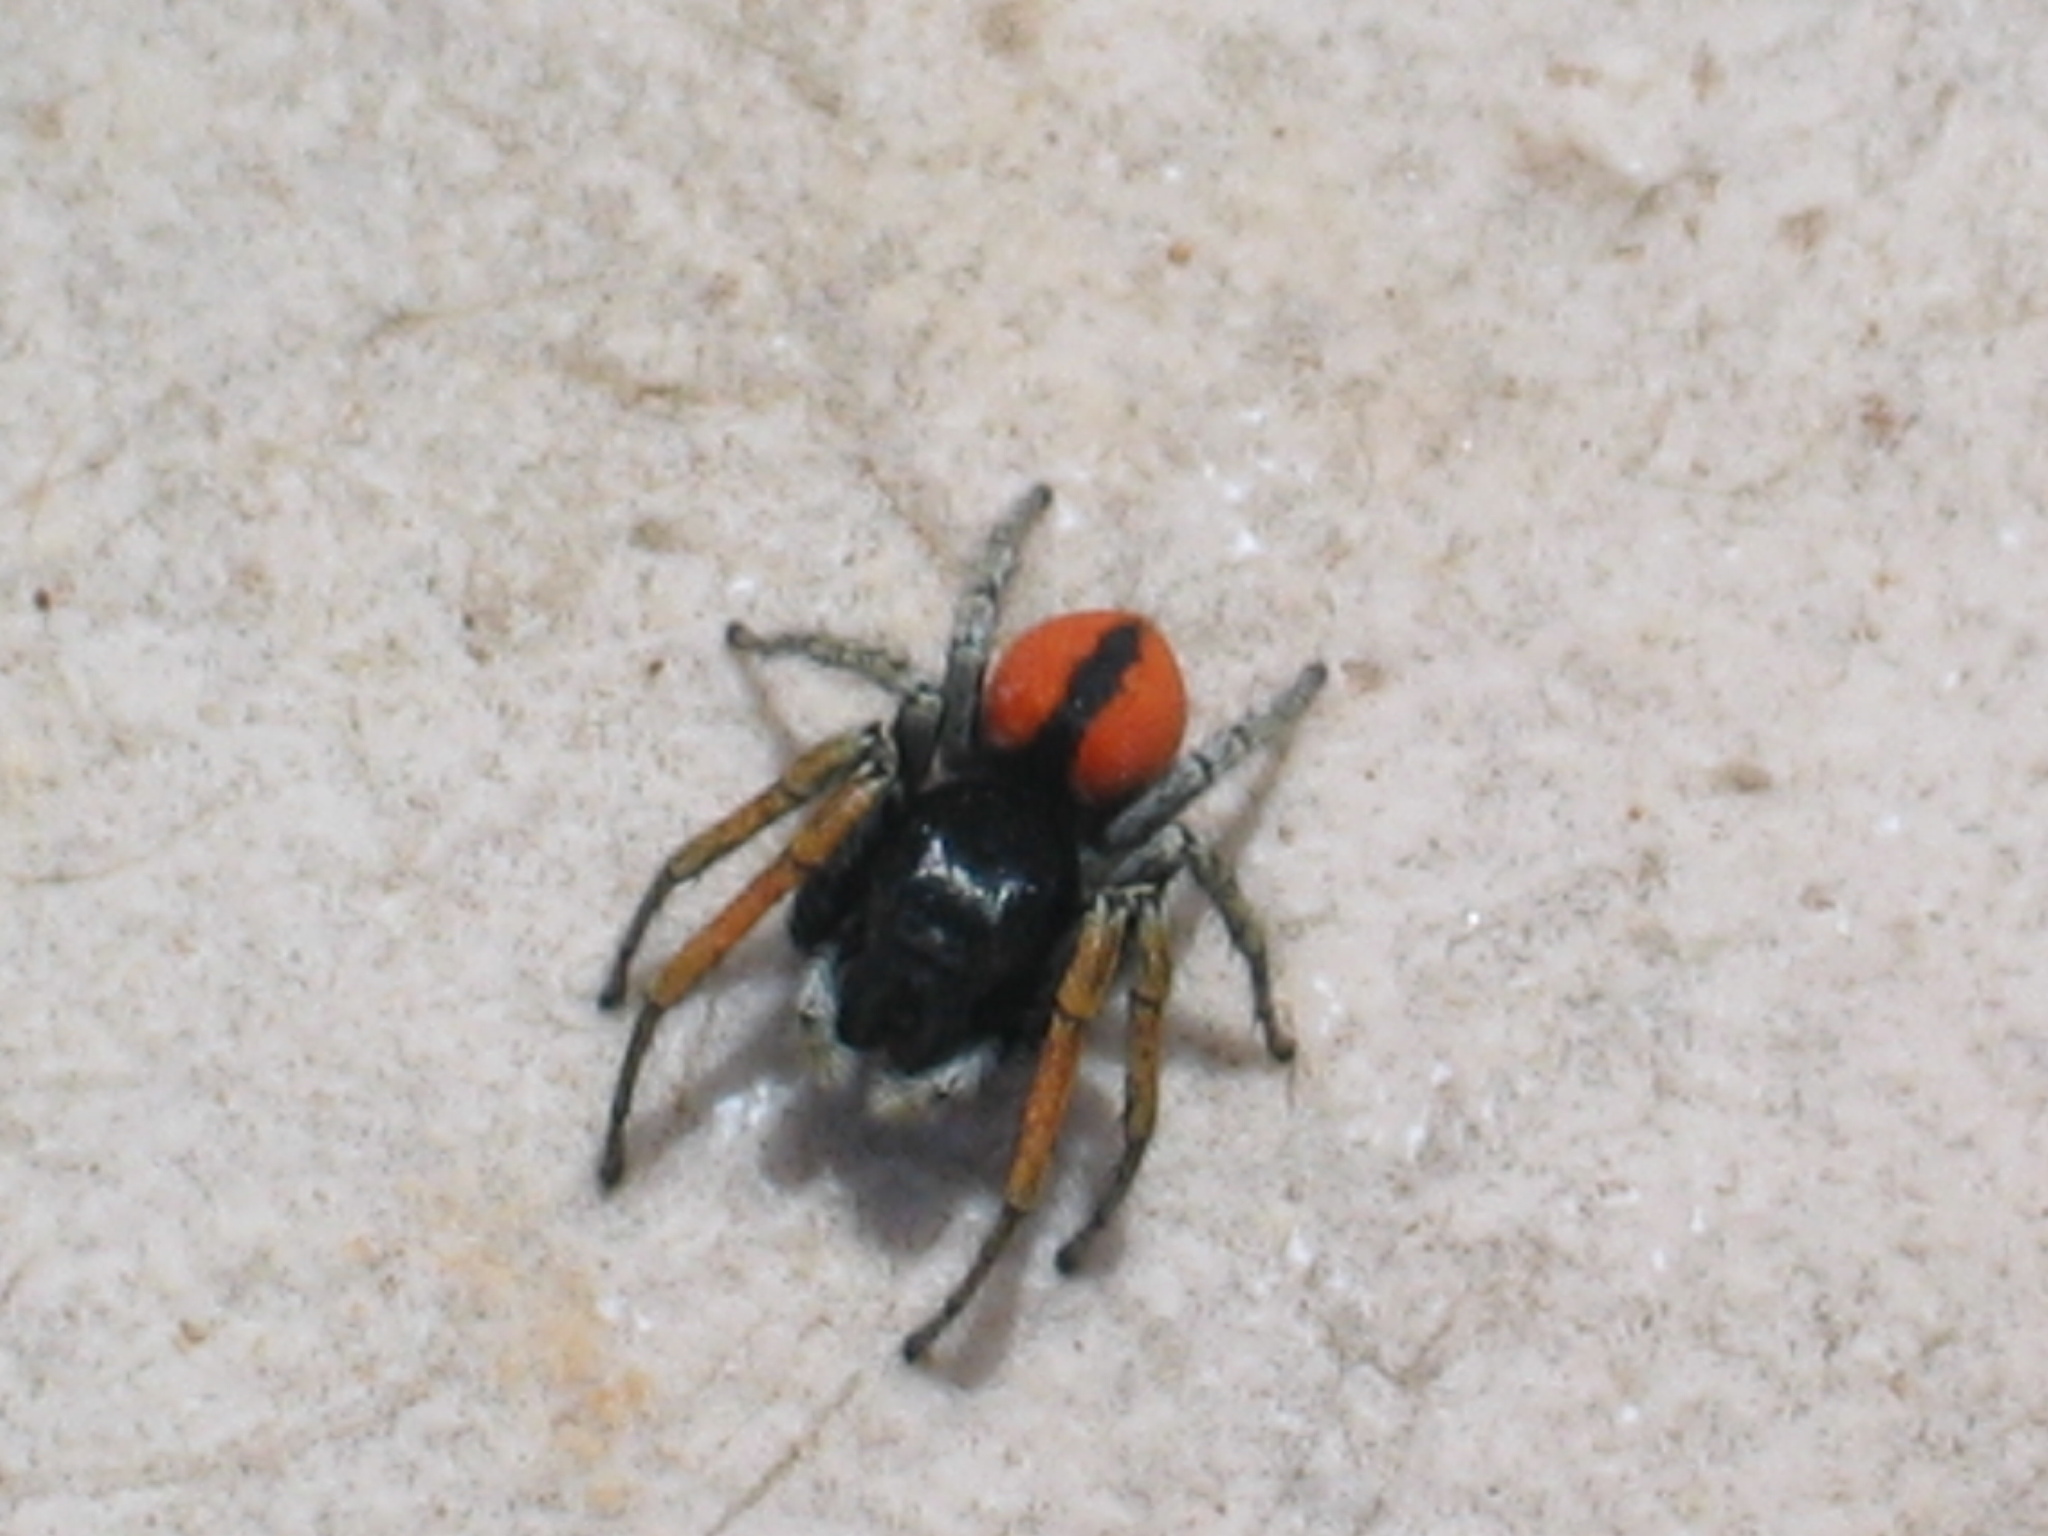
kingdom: Animalia
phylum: Arthropoda
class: Arachnida
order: Araneae
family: Salticidae
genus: Philaeus
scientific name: Philaeus chrysops
